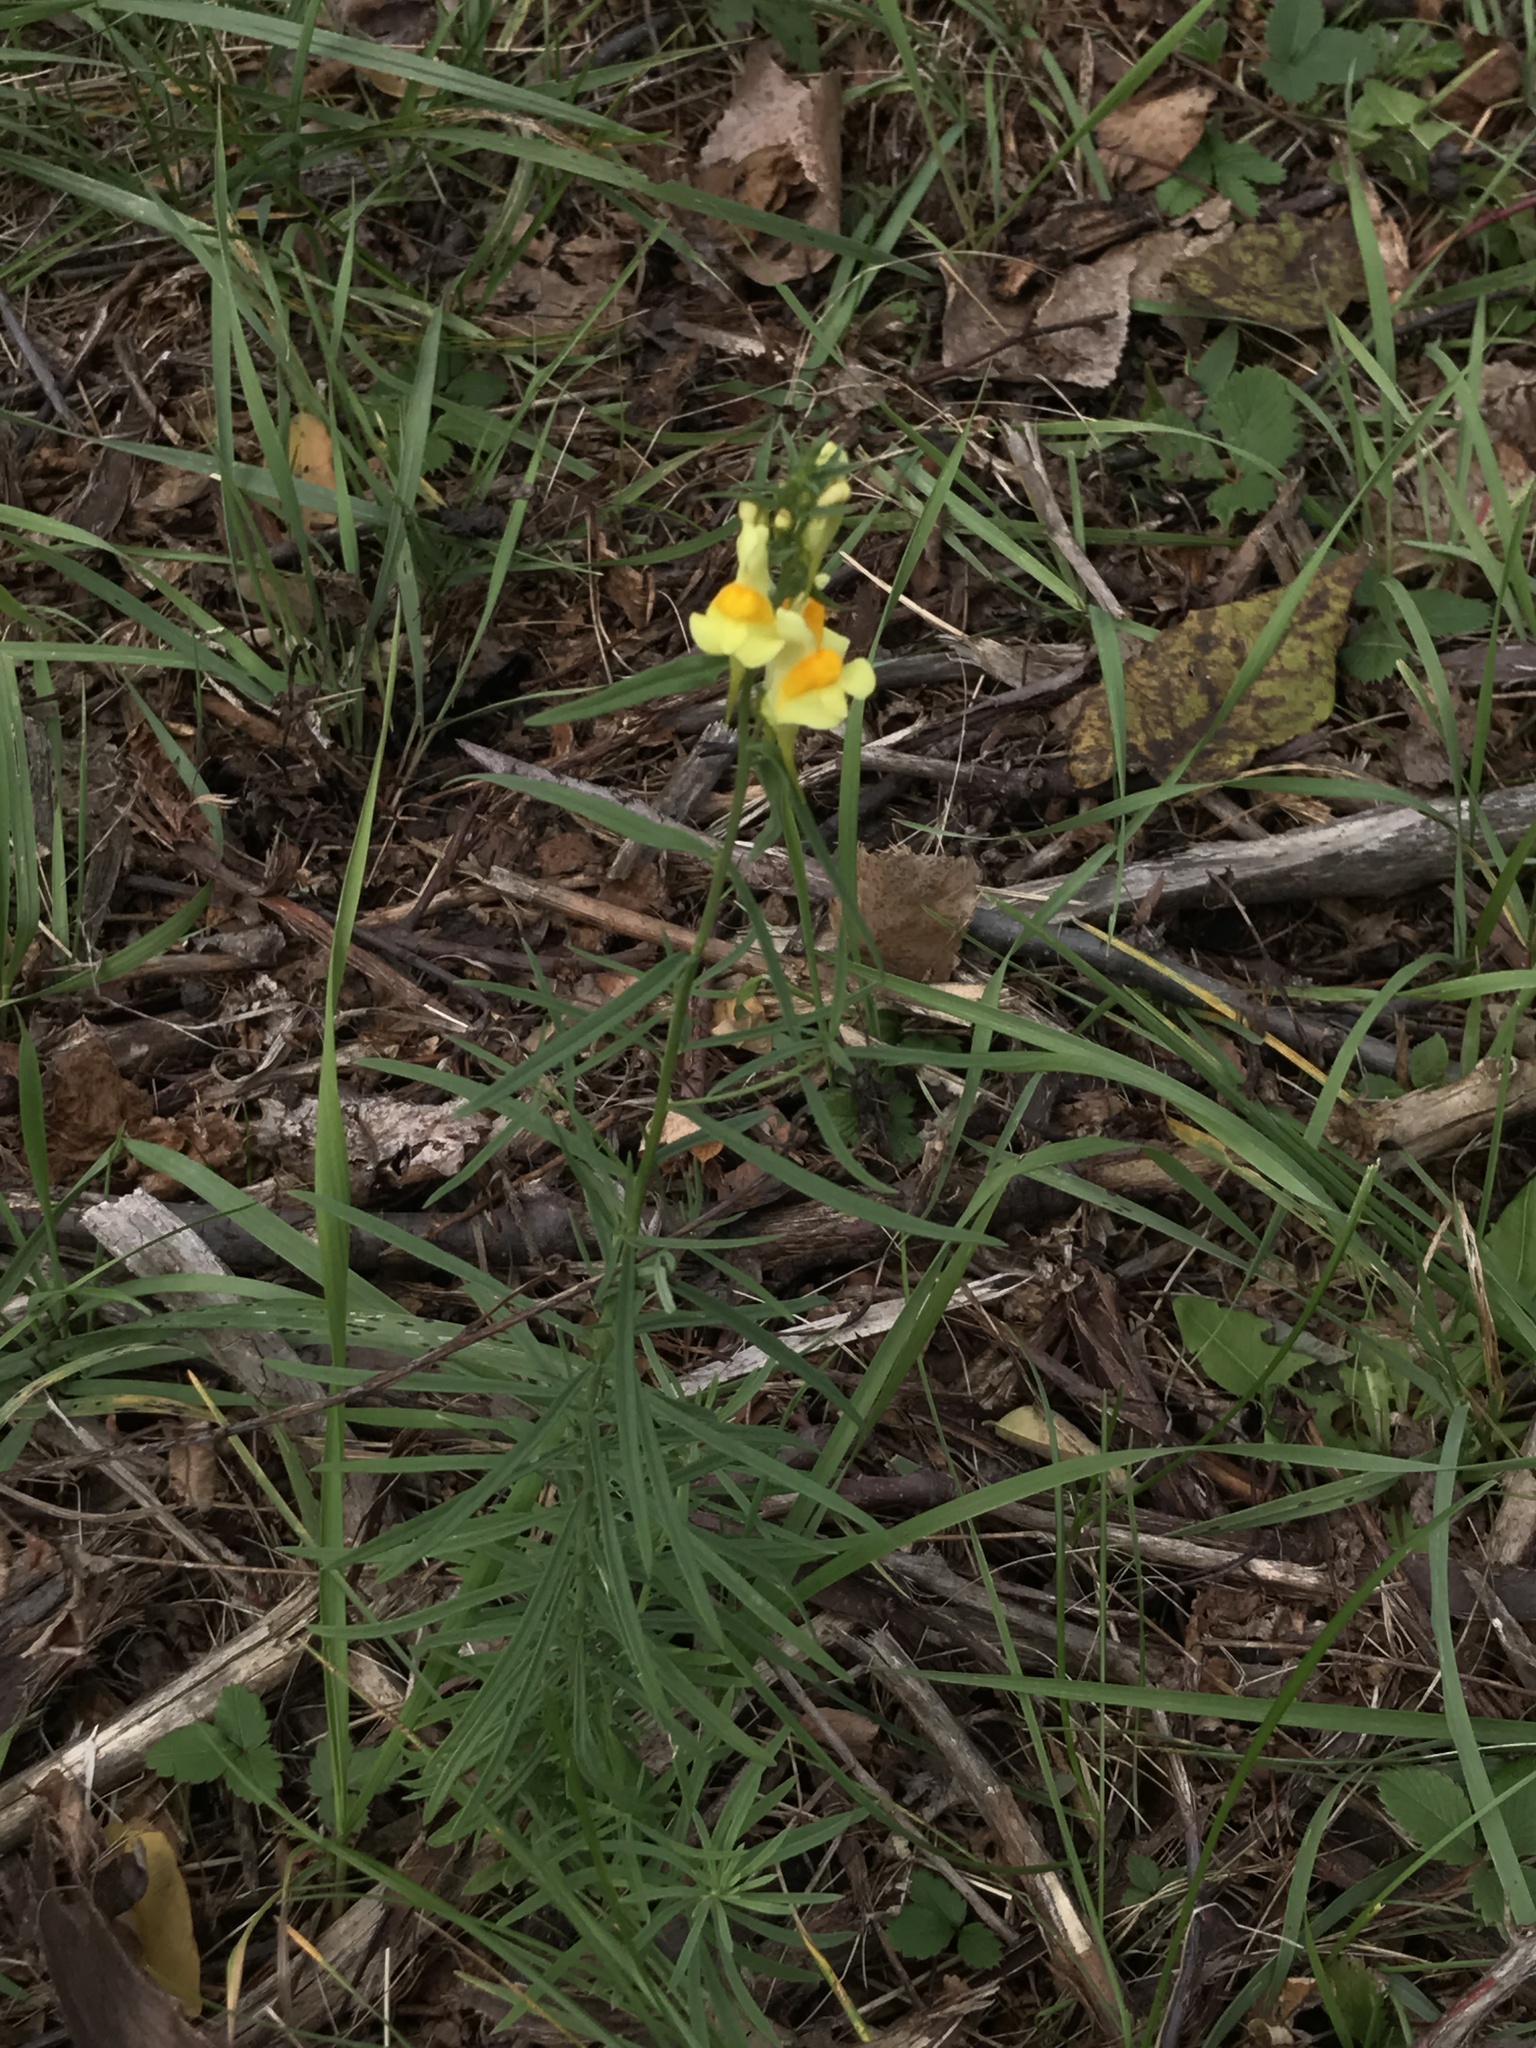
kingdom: Plantae
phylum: Tracheophyta
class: Magnoliopsida
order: Lamiales
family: Plantaginaceae
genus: Linaria
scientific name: Linaria vulgaris
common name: Butter and eggs
